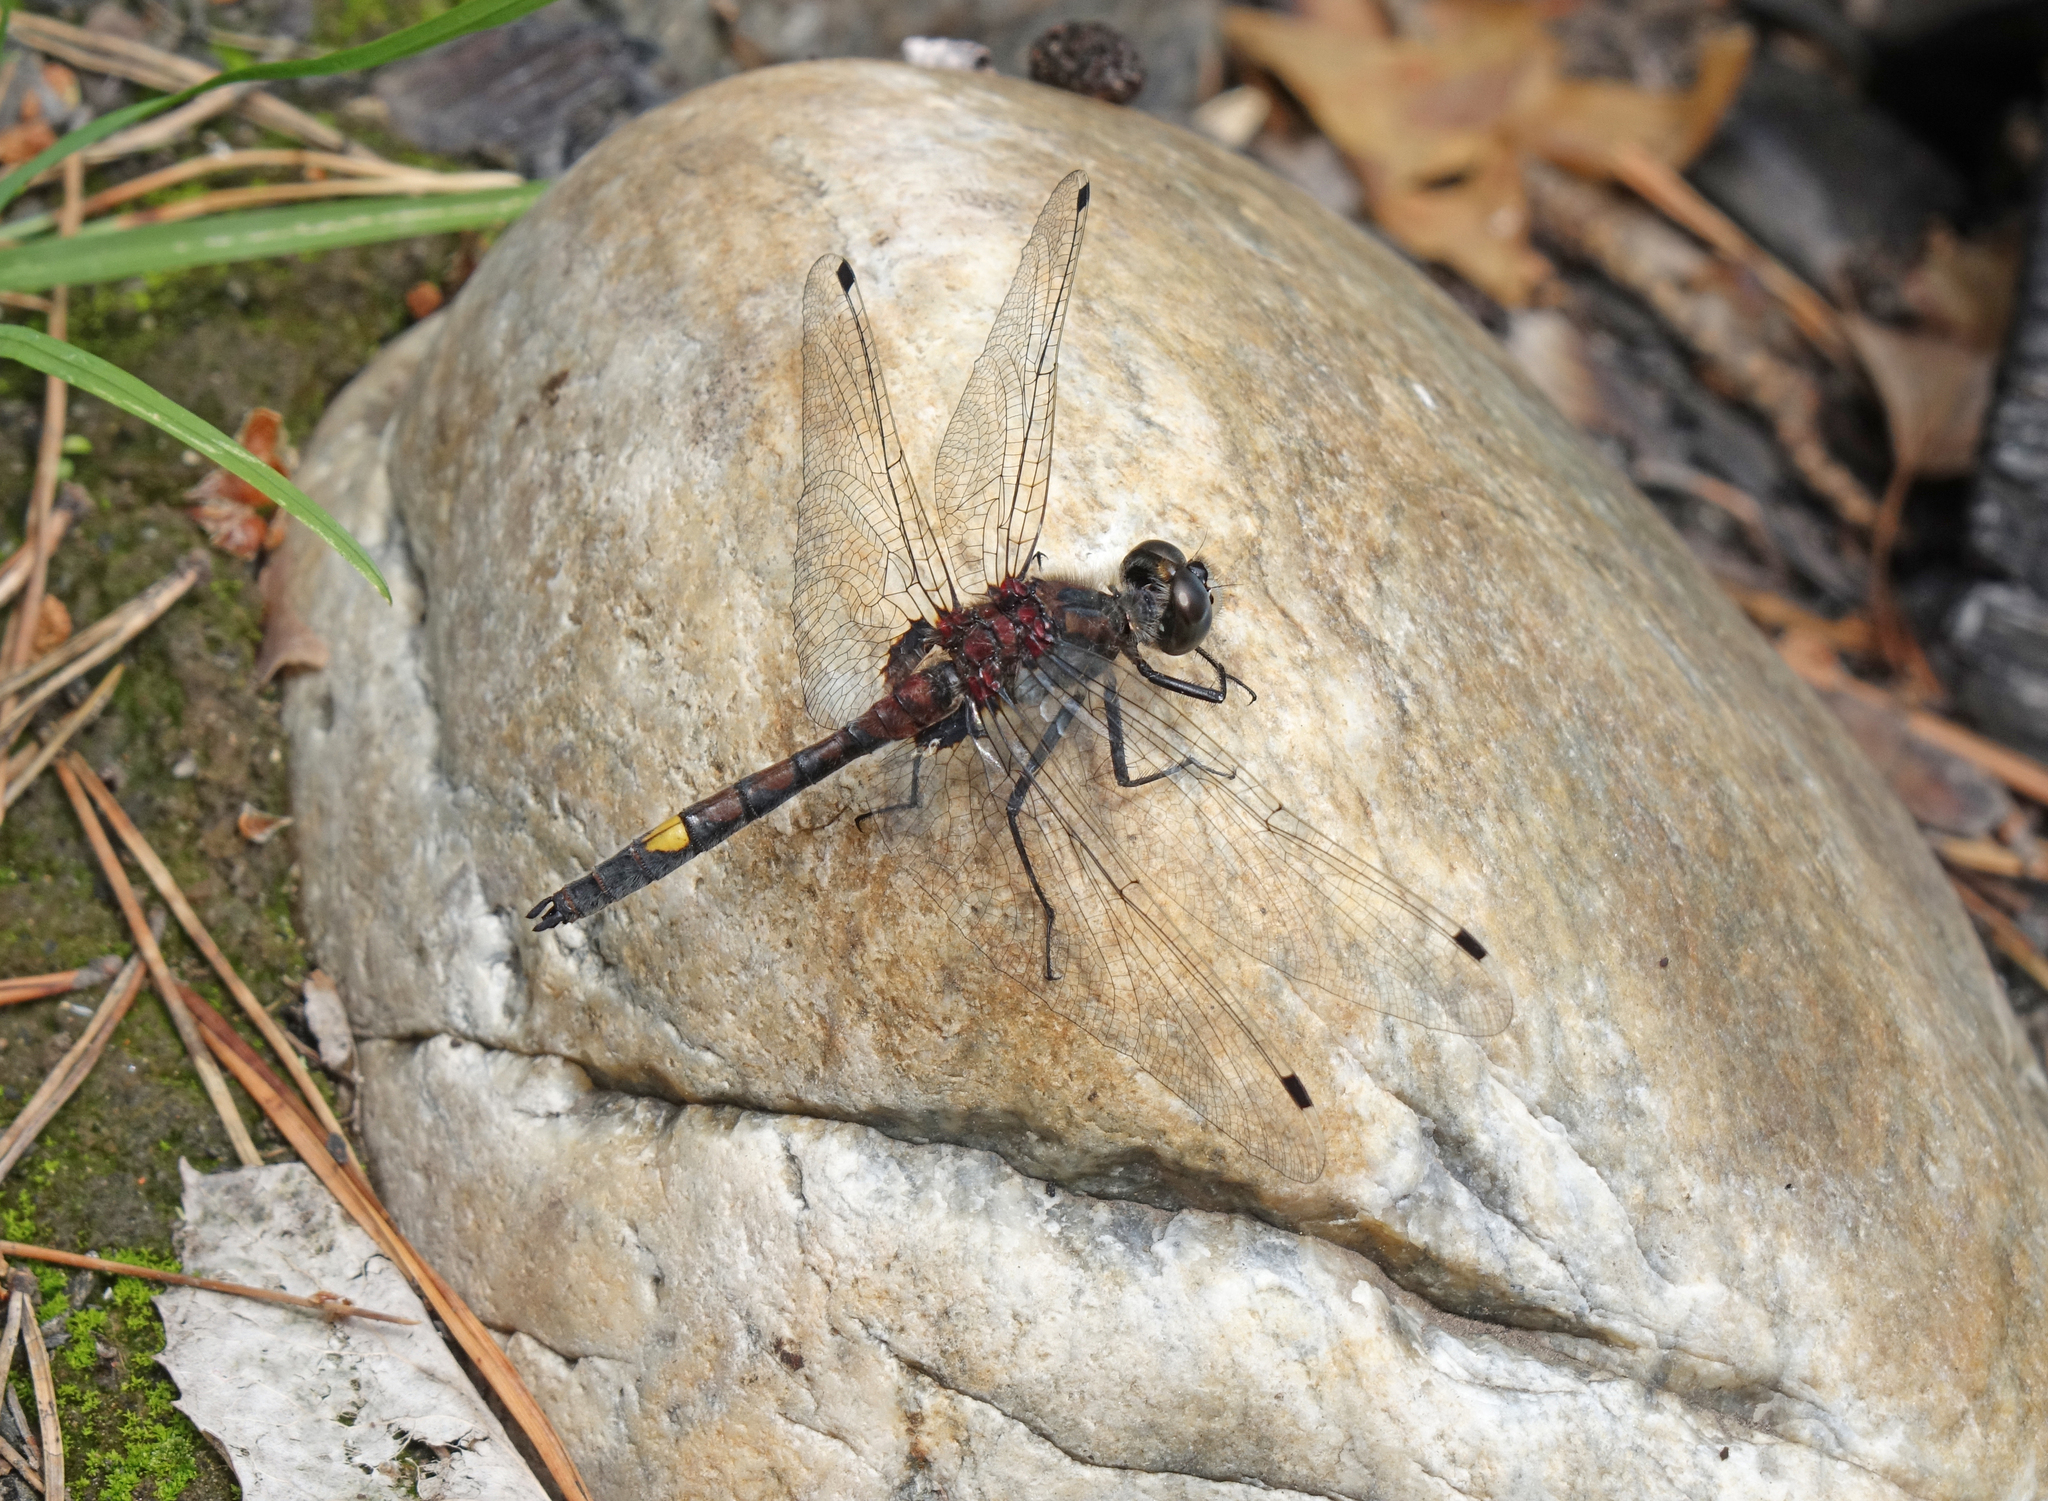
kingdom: Animalia
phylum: Arthropoda
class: Insecta
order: Odonata
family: Libellulidae
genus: Leucorrhinia
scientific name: Leucorrhinia pectoralis
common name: Yellow-spotted whiteface
